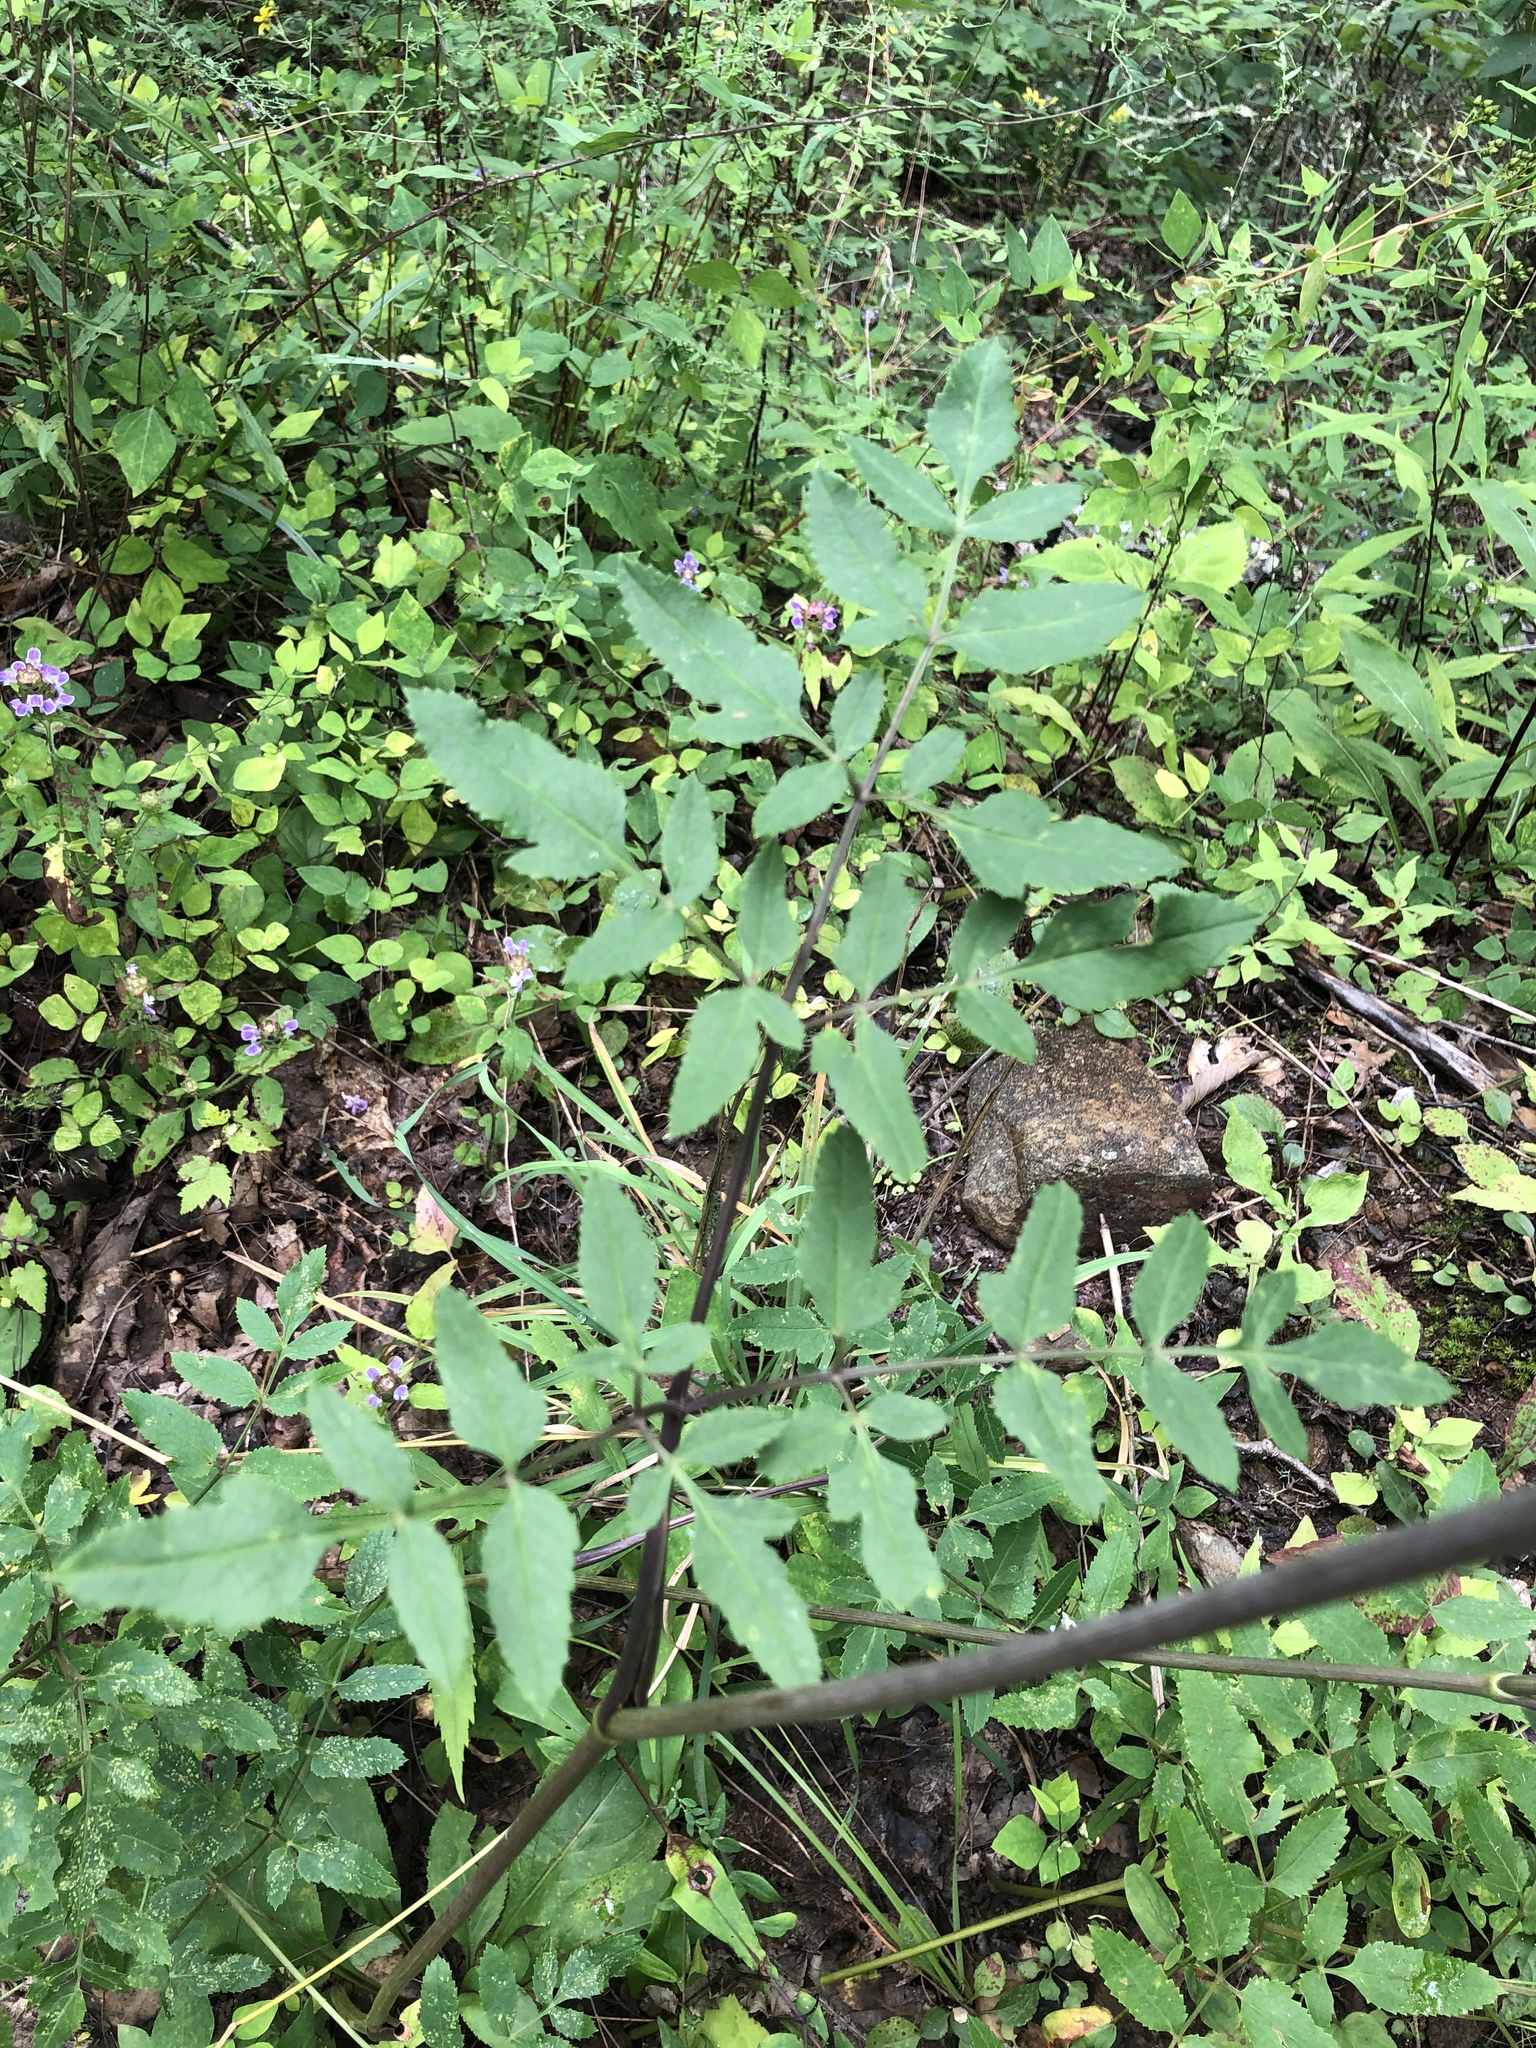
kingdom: Plantae
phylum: Tracheophyta
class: Magnoliopsida
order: Apiales
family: Apiaceae
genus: Angelica
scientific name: Angelica venenosa
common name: Hairy angelica
